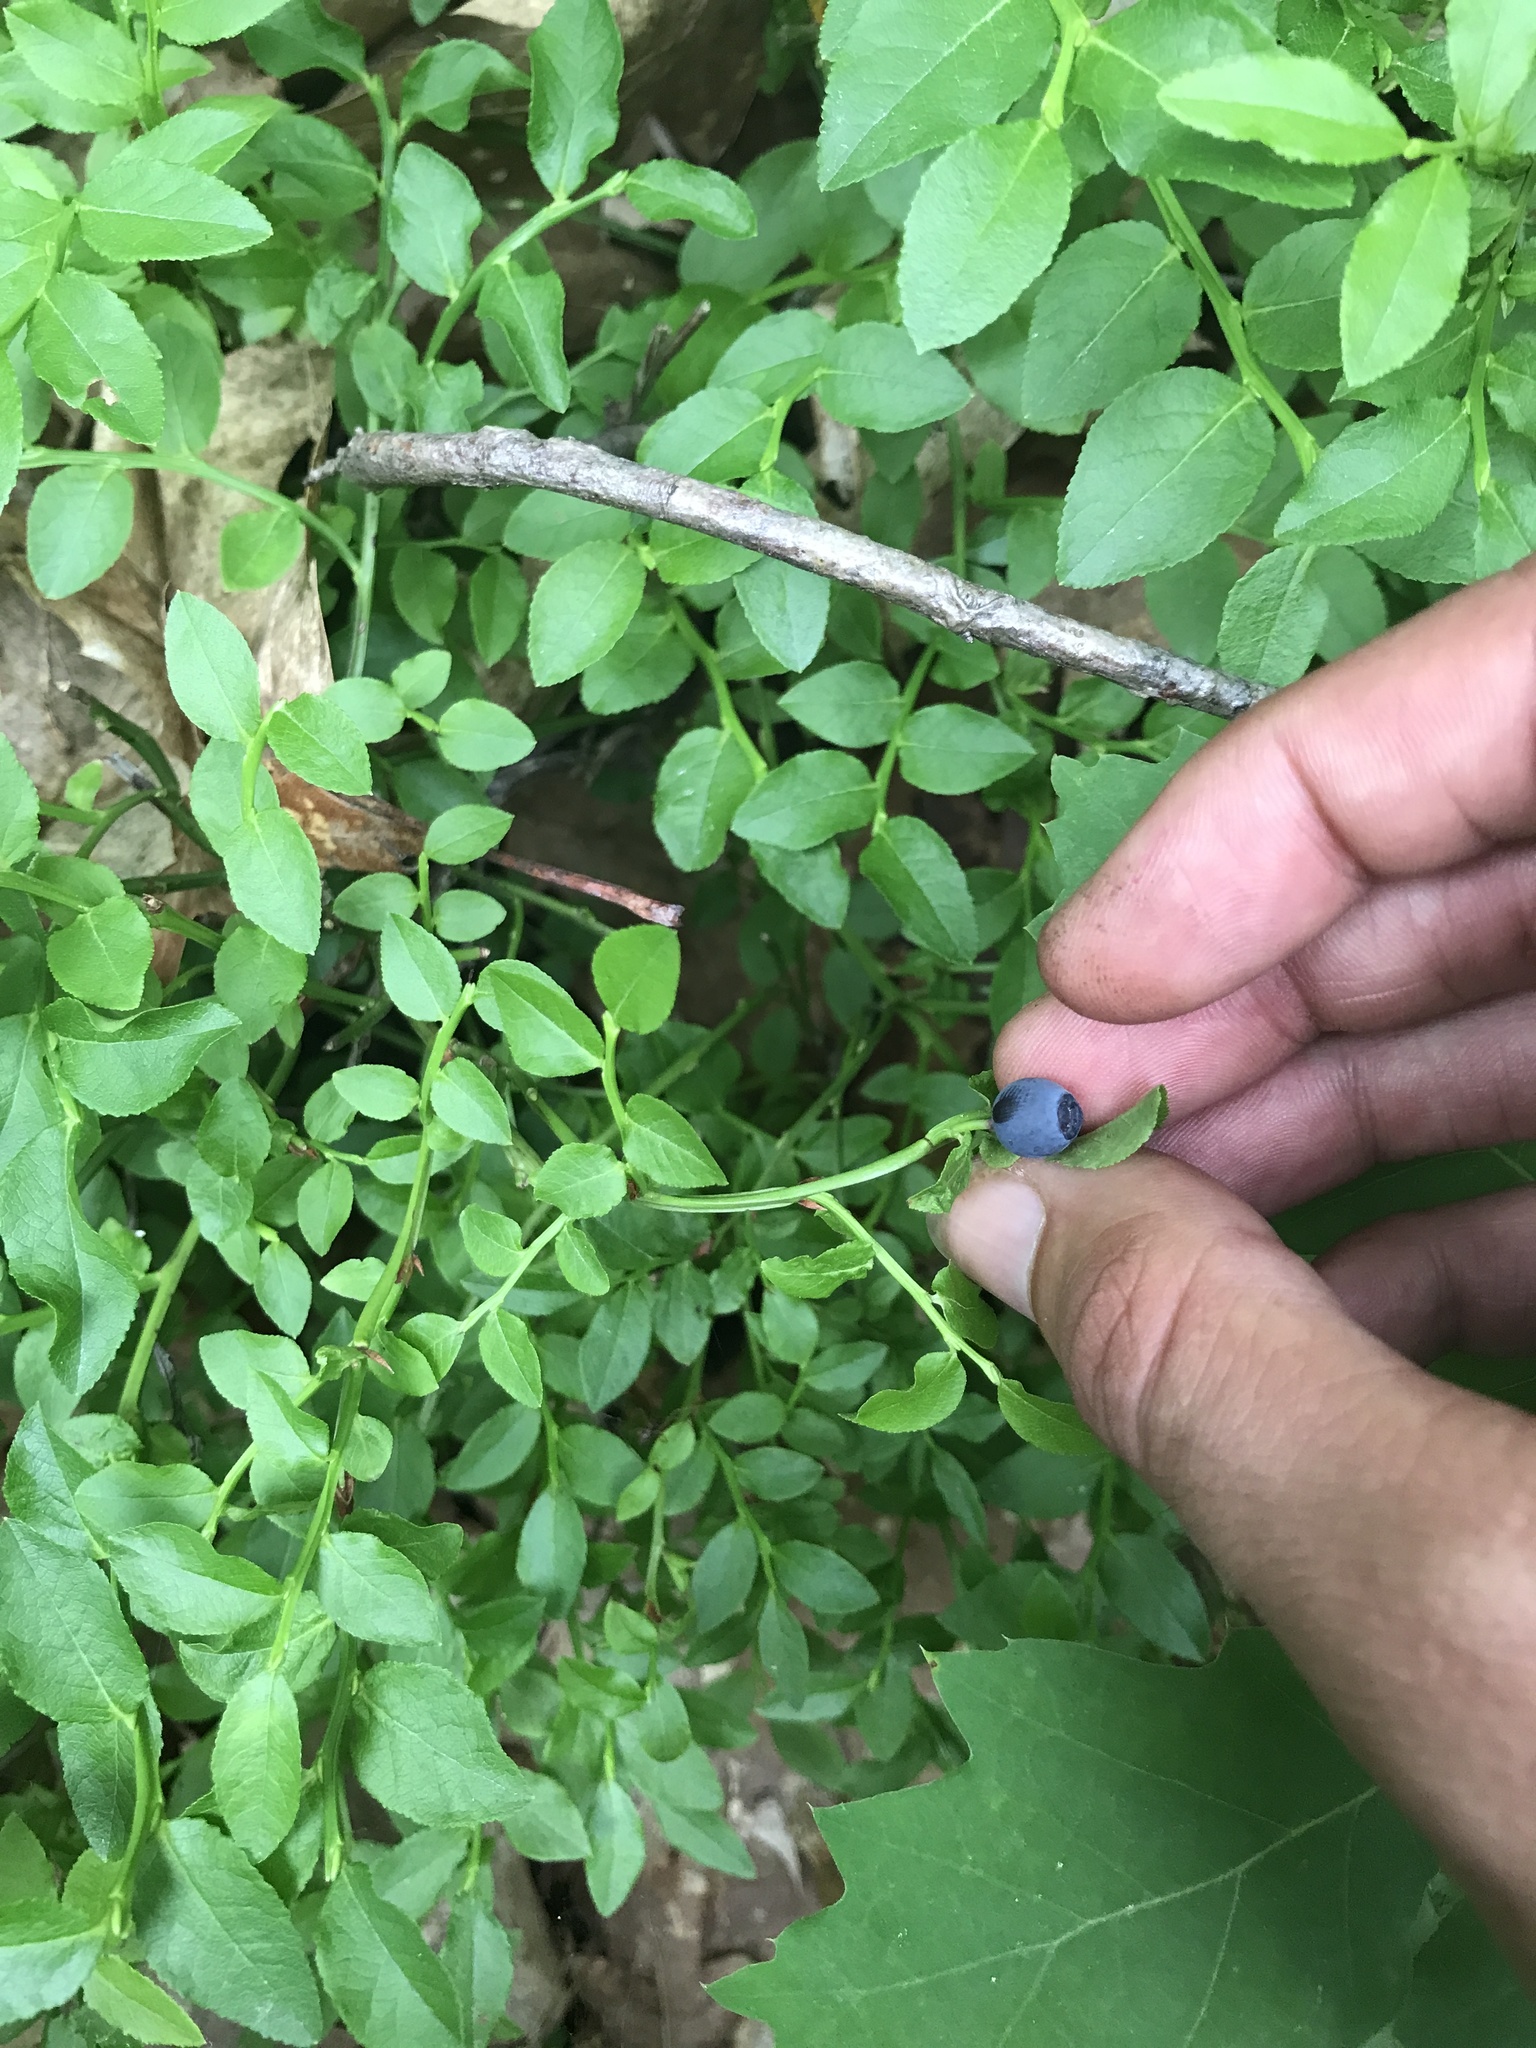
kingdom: Plantae
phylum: Tracheophyta
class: Magnoliopsida
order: Ericales
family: Ericaceae
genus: Vaccinium
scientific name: Vaccinium myrtillus
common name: Bilberry
